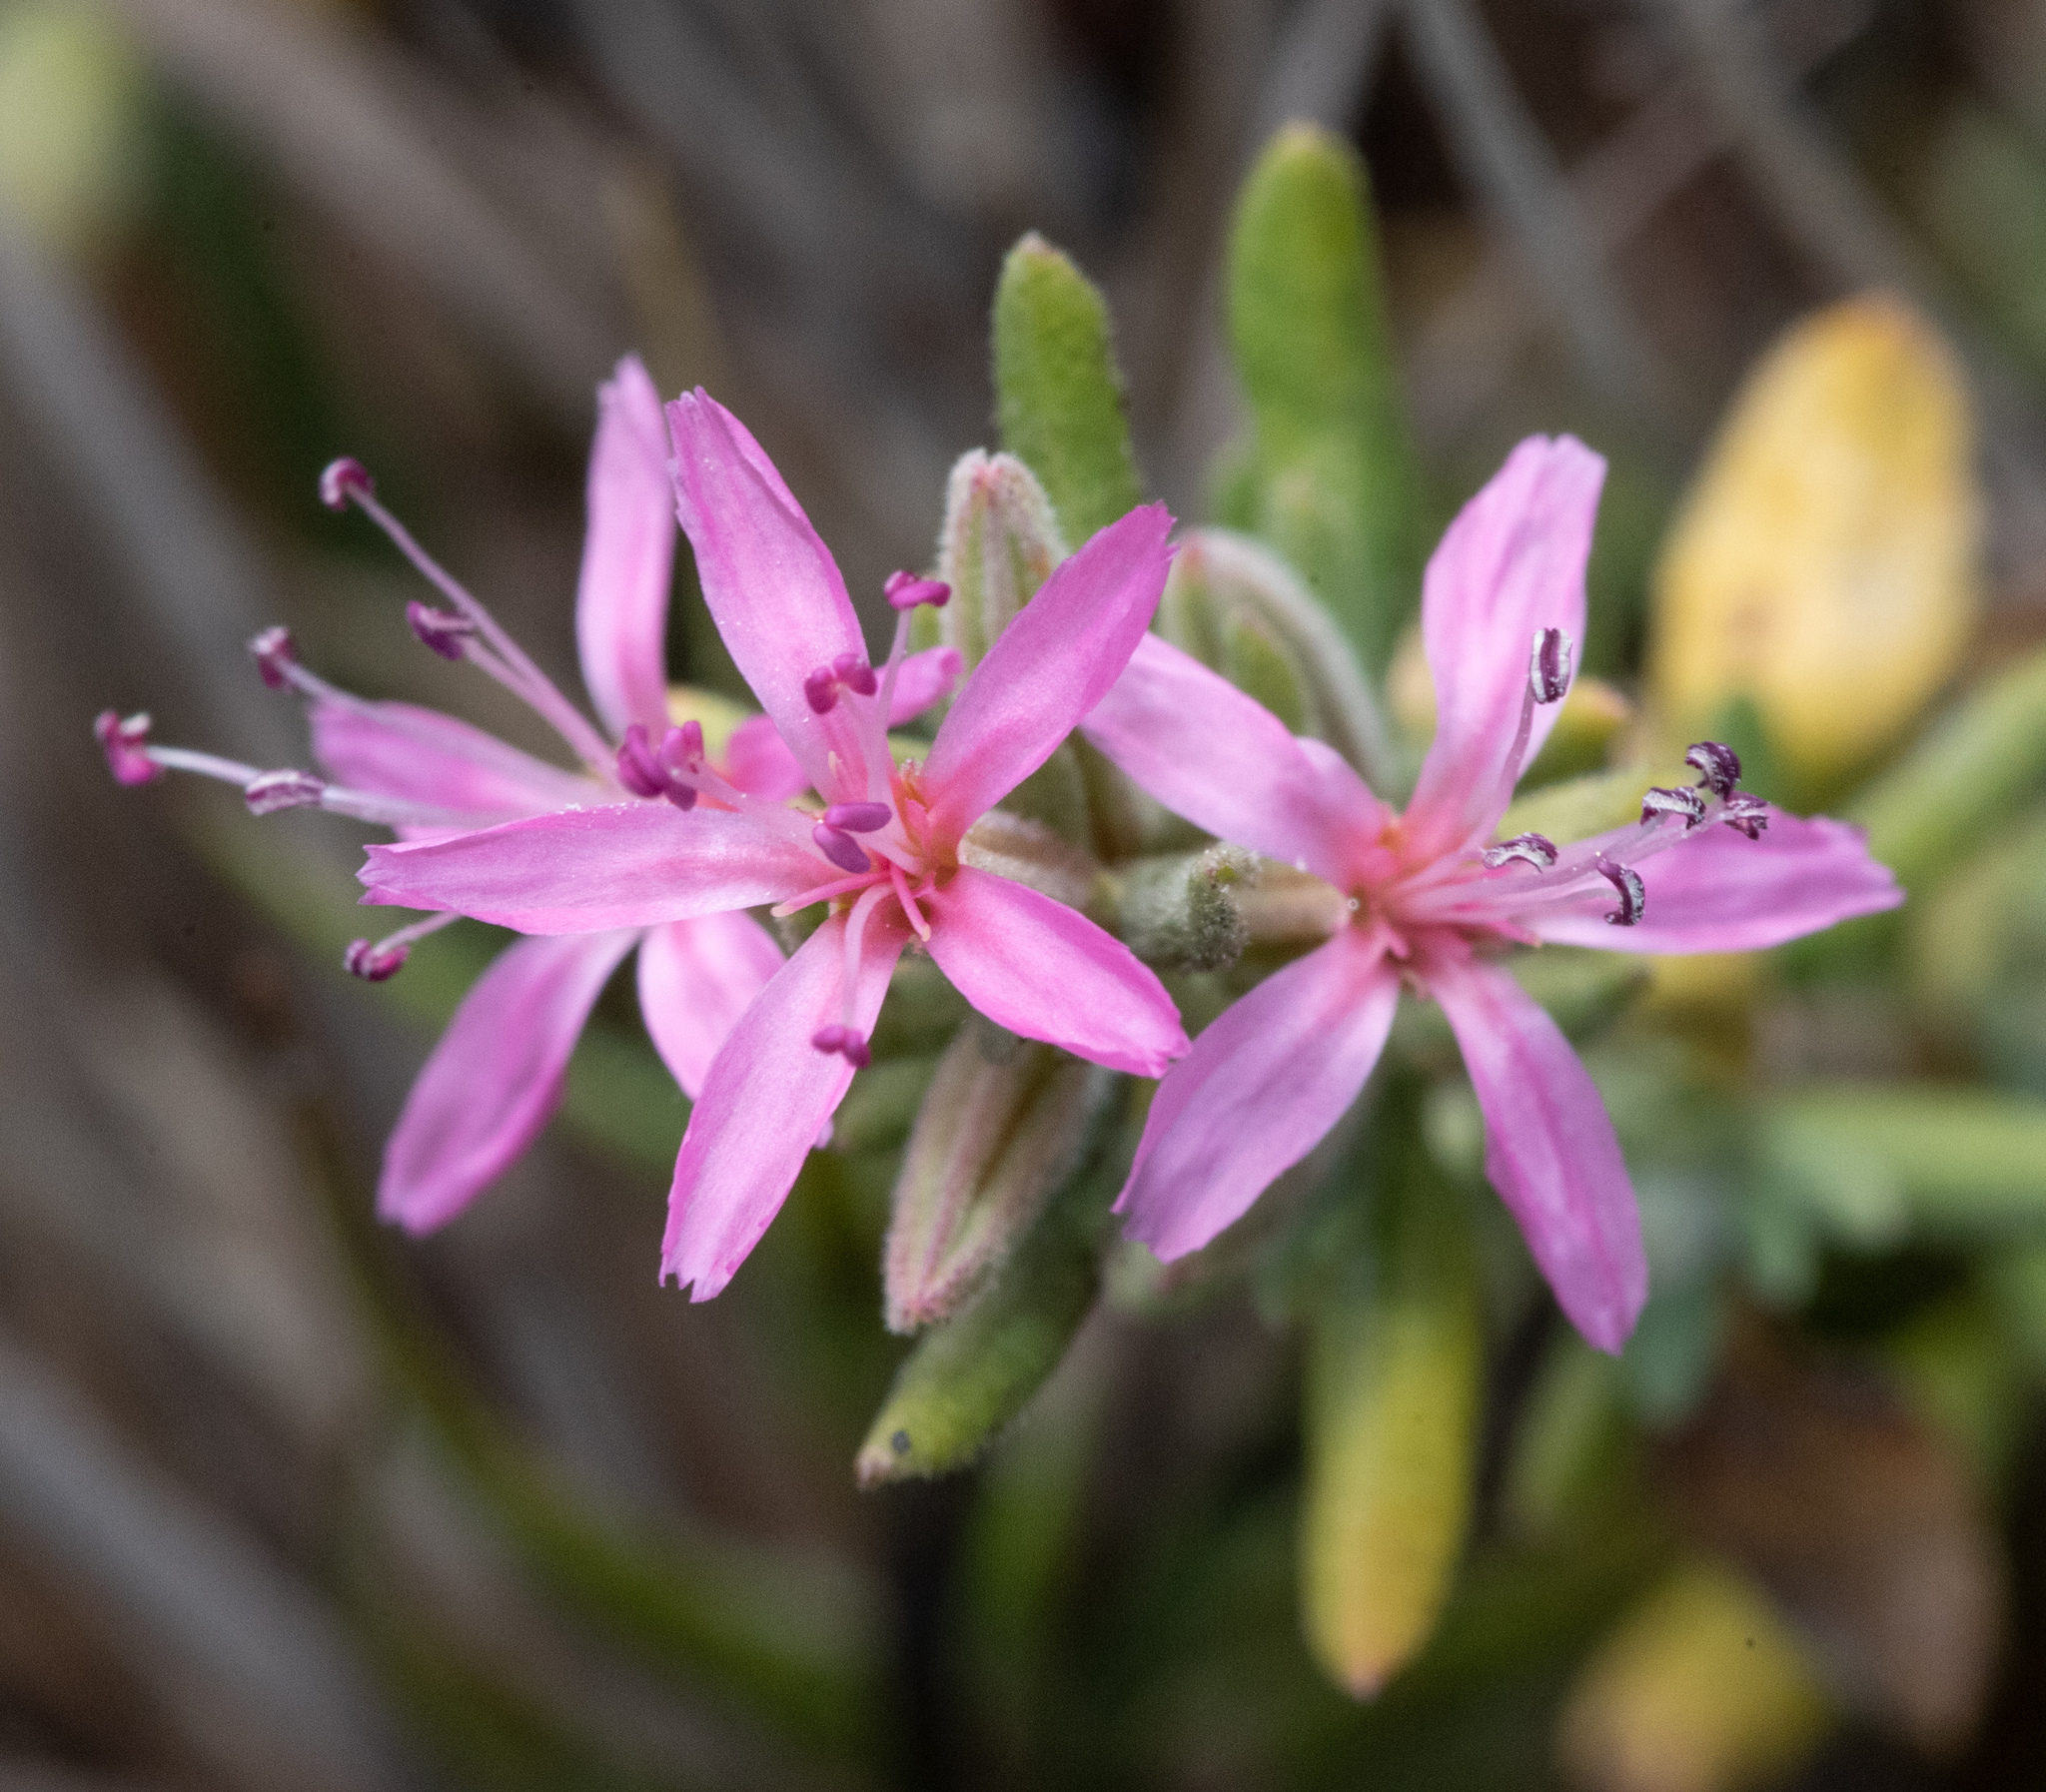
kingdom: Plantae
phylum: Tracheophyta
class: Magnoliopsida
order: Caryophyllales
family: Frankeniaceae
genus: Frankenia
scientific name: Frankenia salina
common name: Alkali seaheath
